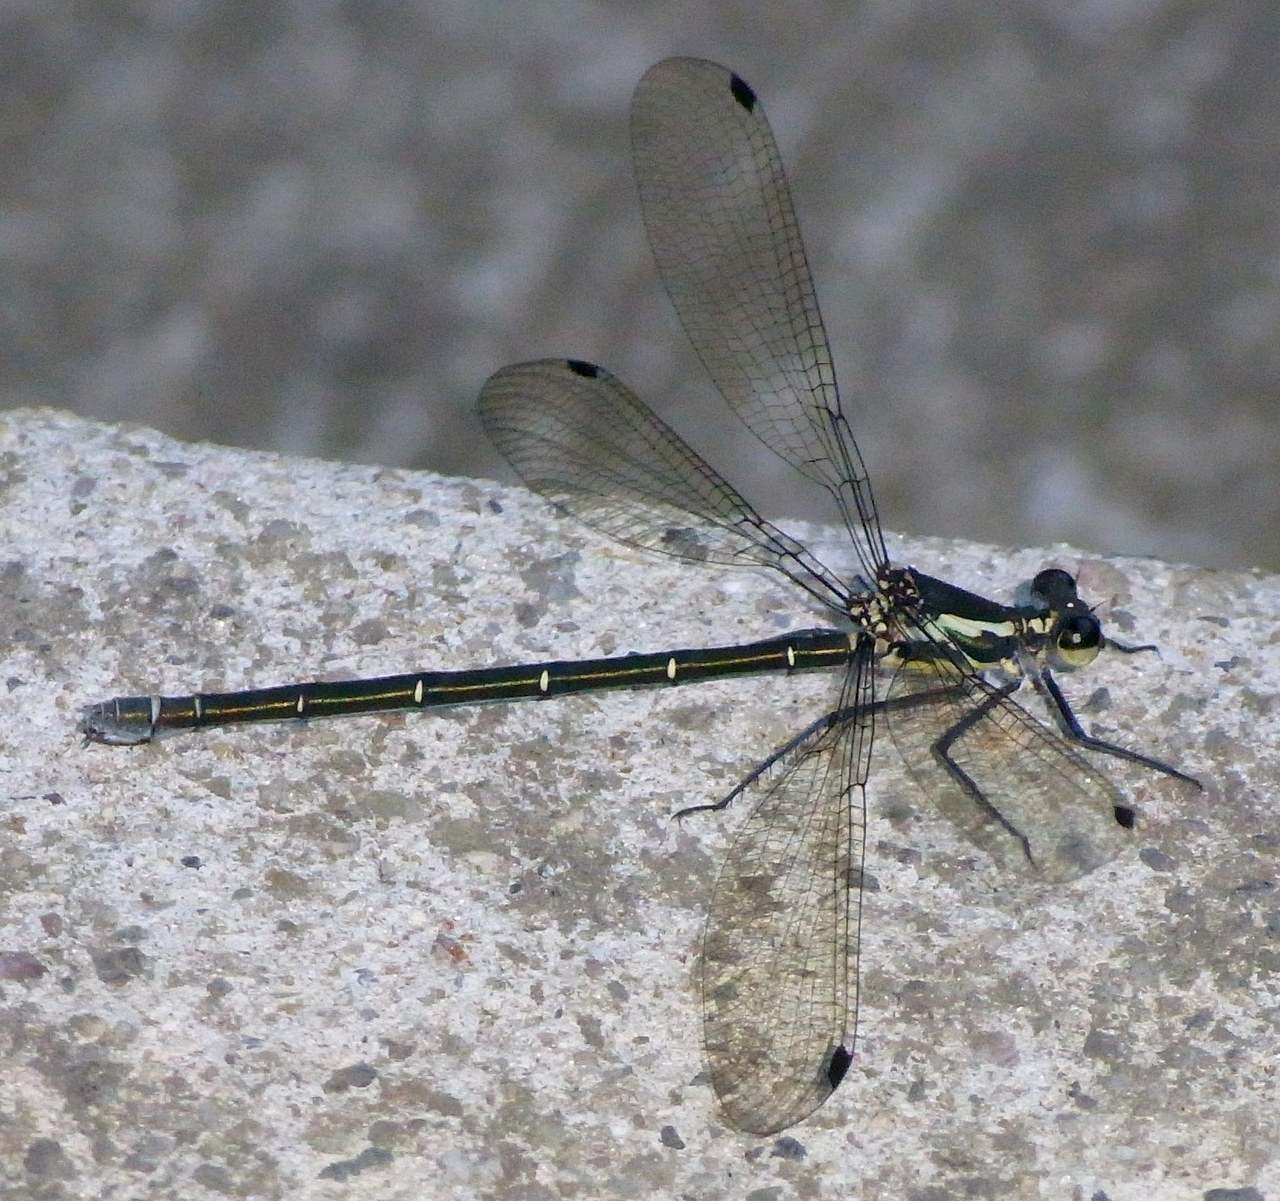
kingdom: Animalia
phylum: Arthropoda
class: Insecta
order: Odonata
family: Argiolestidae
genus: Austroargiolestes
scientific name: Austroargiolestes icteromelas
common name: Common flatwing
